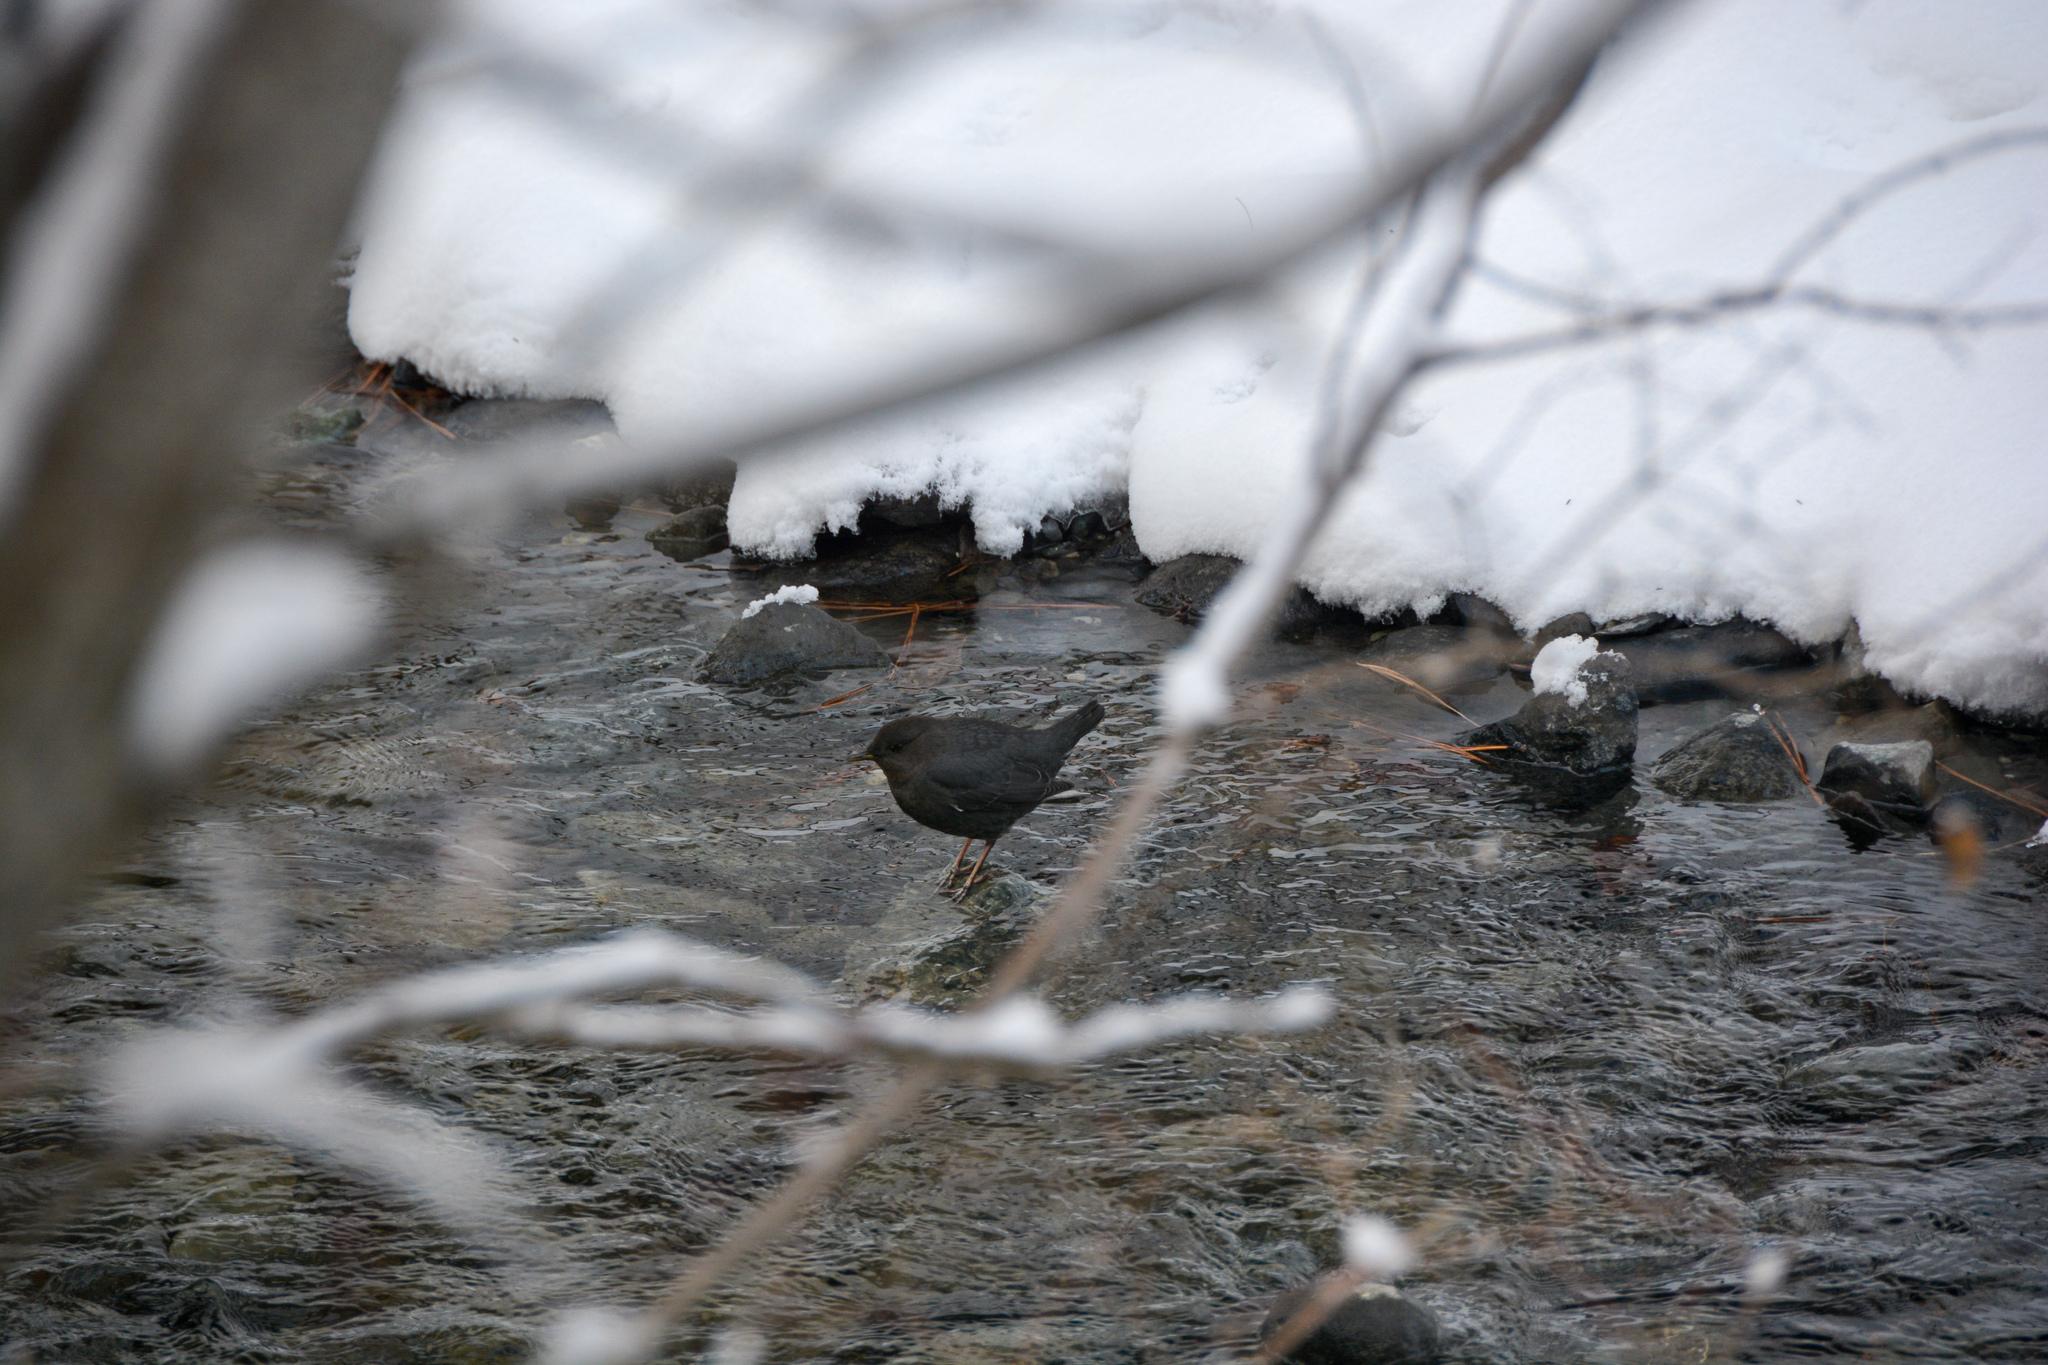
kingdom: Animalia
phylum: Chordata
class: Aves
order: Passeriformes
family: Cinclidae
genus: Cinclus
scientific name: Cinclus mexicanus
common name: American dipper
